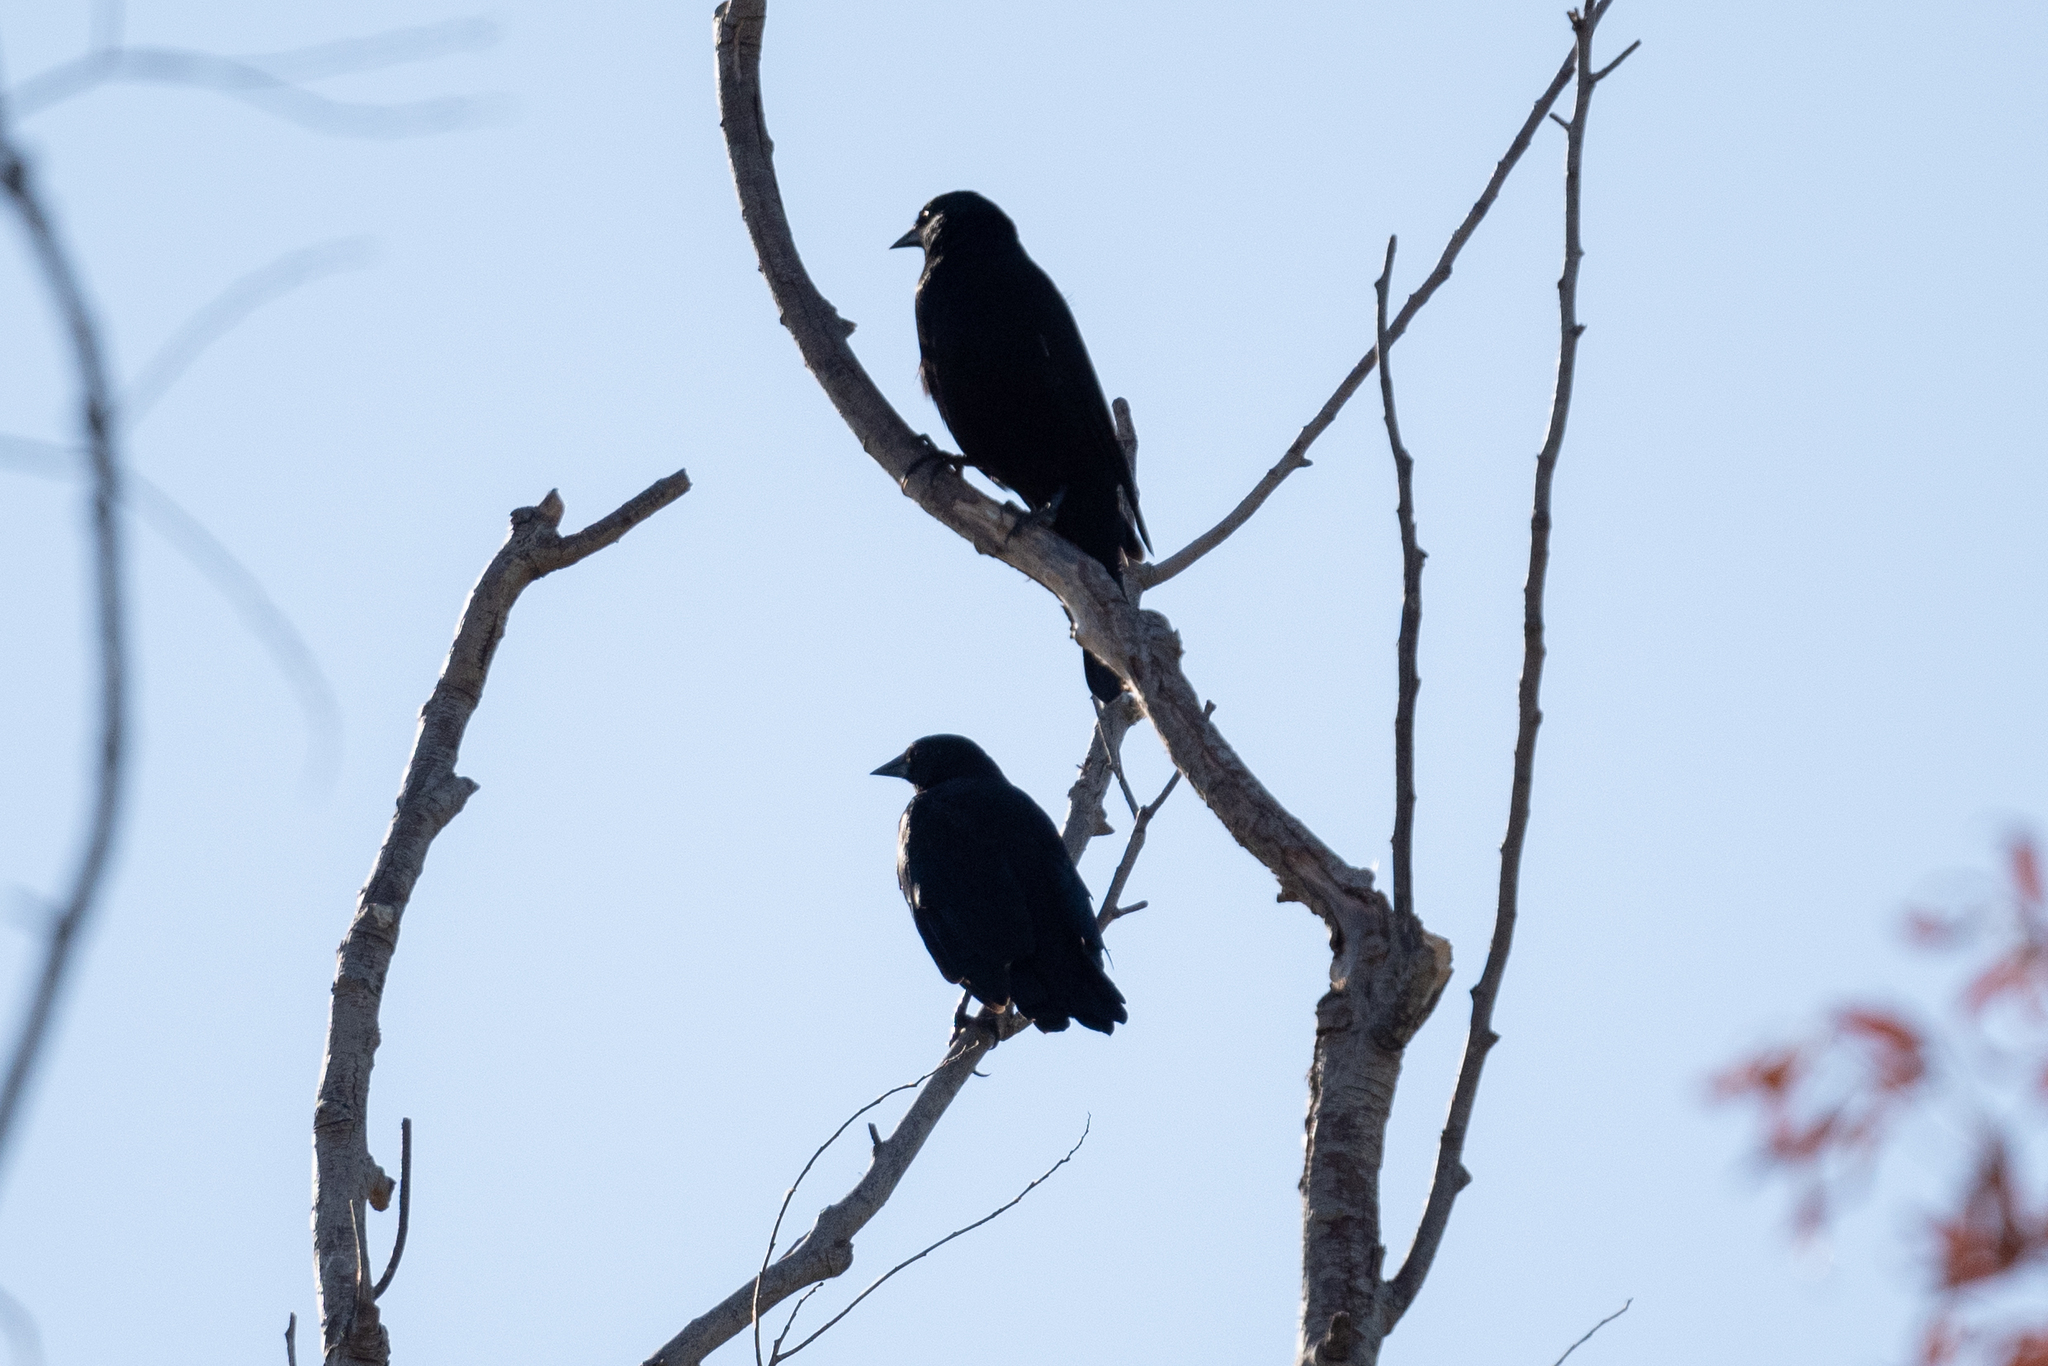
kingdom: Animalia
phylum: Chordata
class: Aves
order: Passeriformes
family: Corvidae
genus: Corvus
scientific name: Corvus brachyrhynchos
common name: American crow
